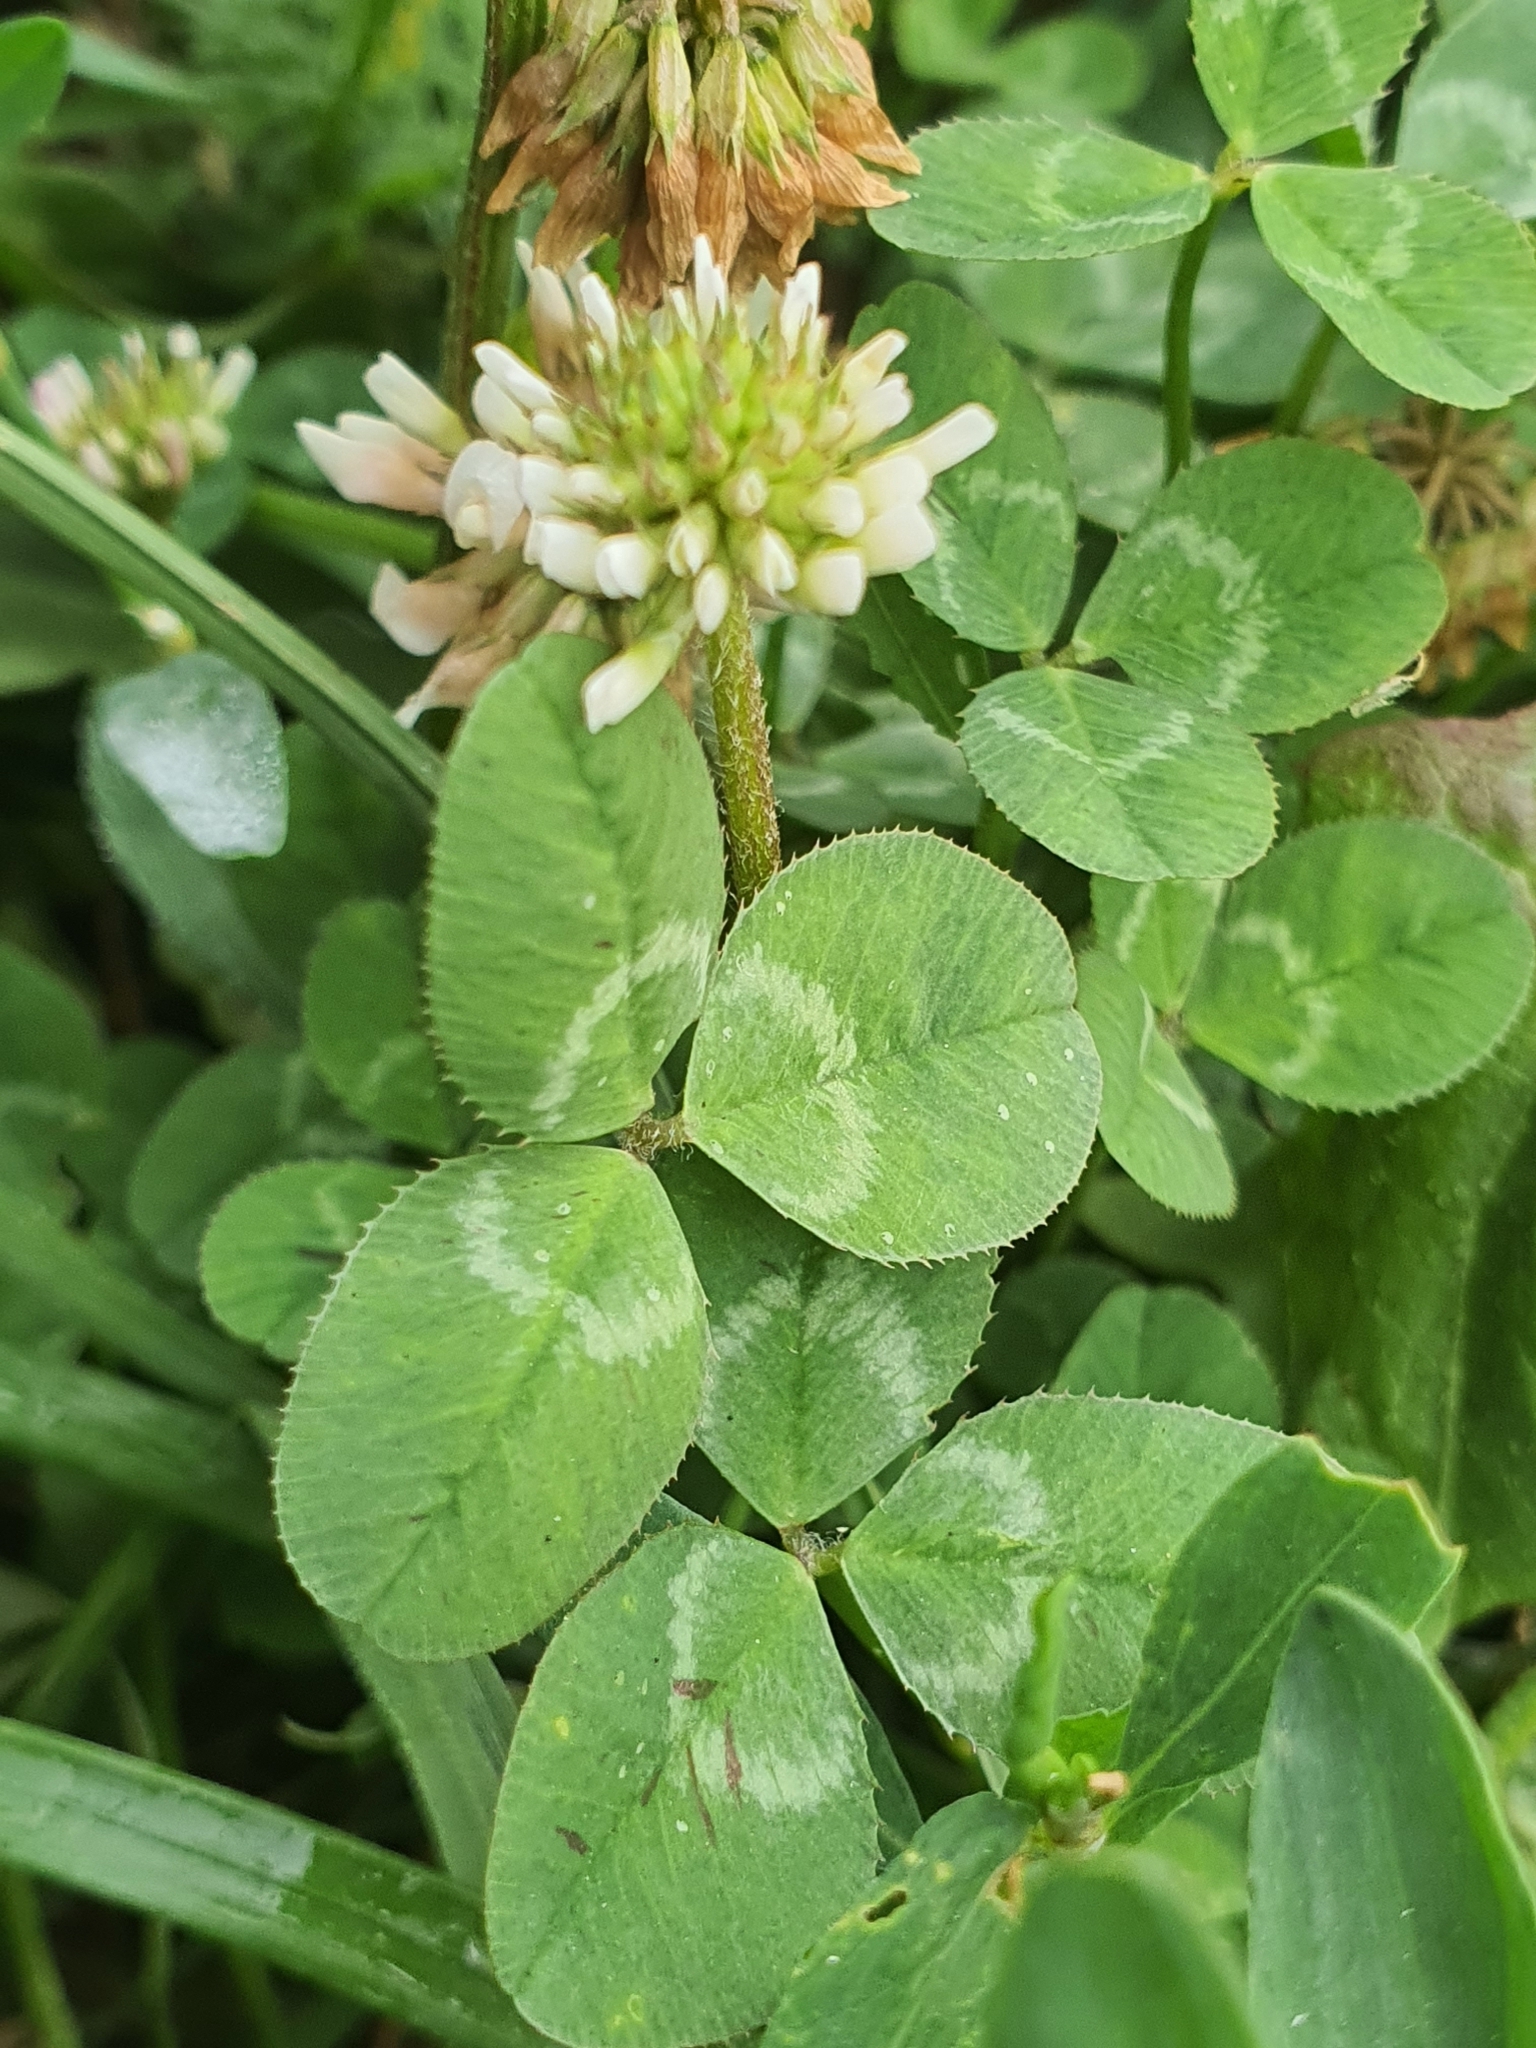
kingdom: Plantae
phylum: Tracheophyta
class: Magnoliopsida
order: Fabales
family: Fabaceae
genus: Trifolium
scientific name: Trifolium repens
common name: White clover
